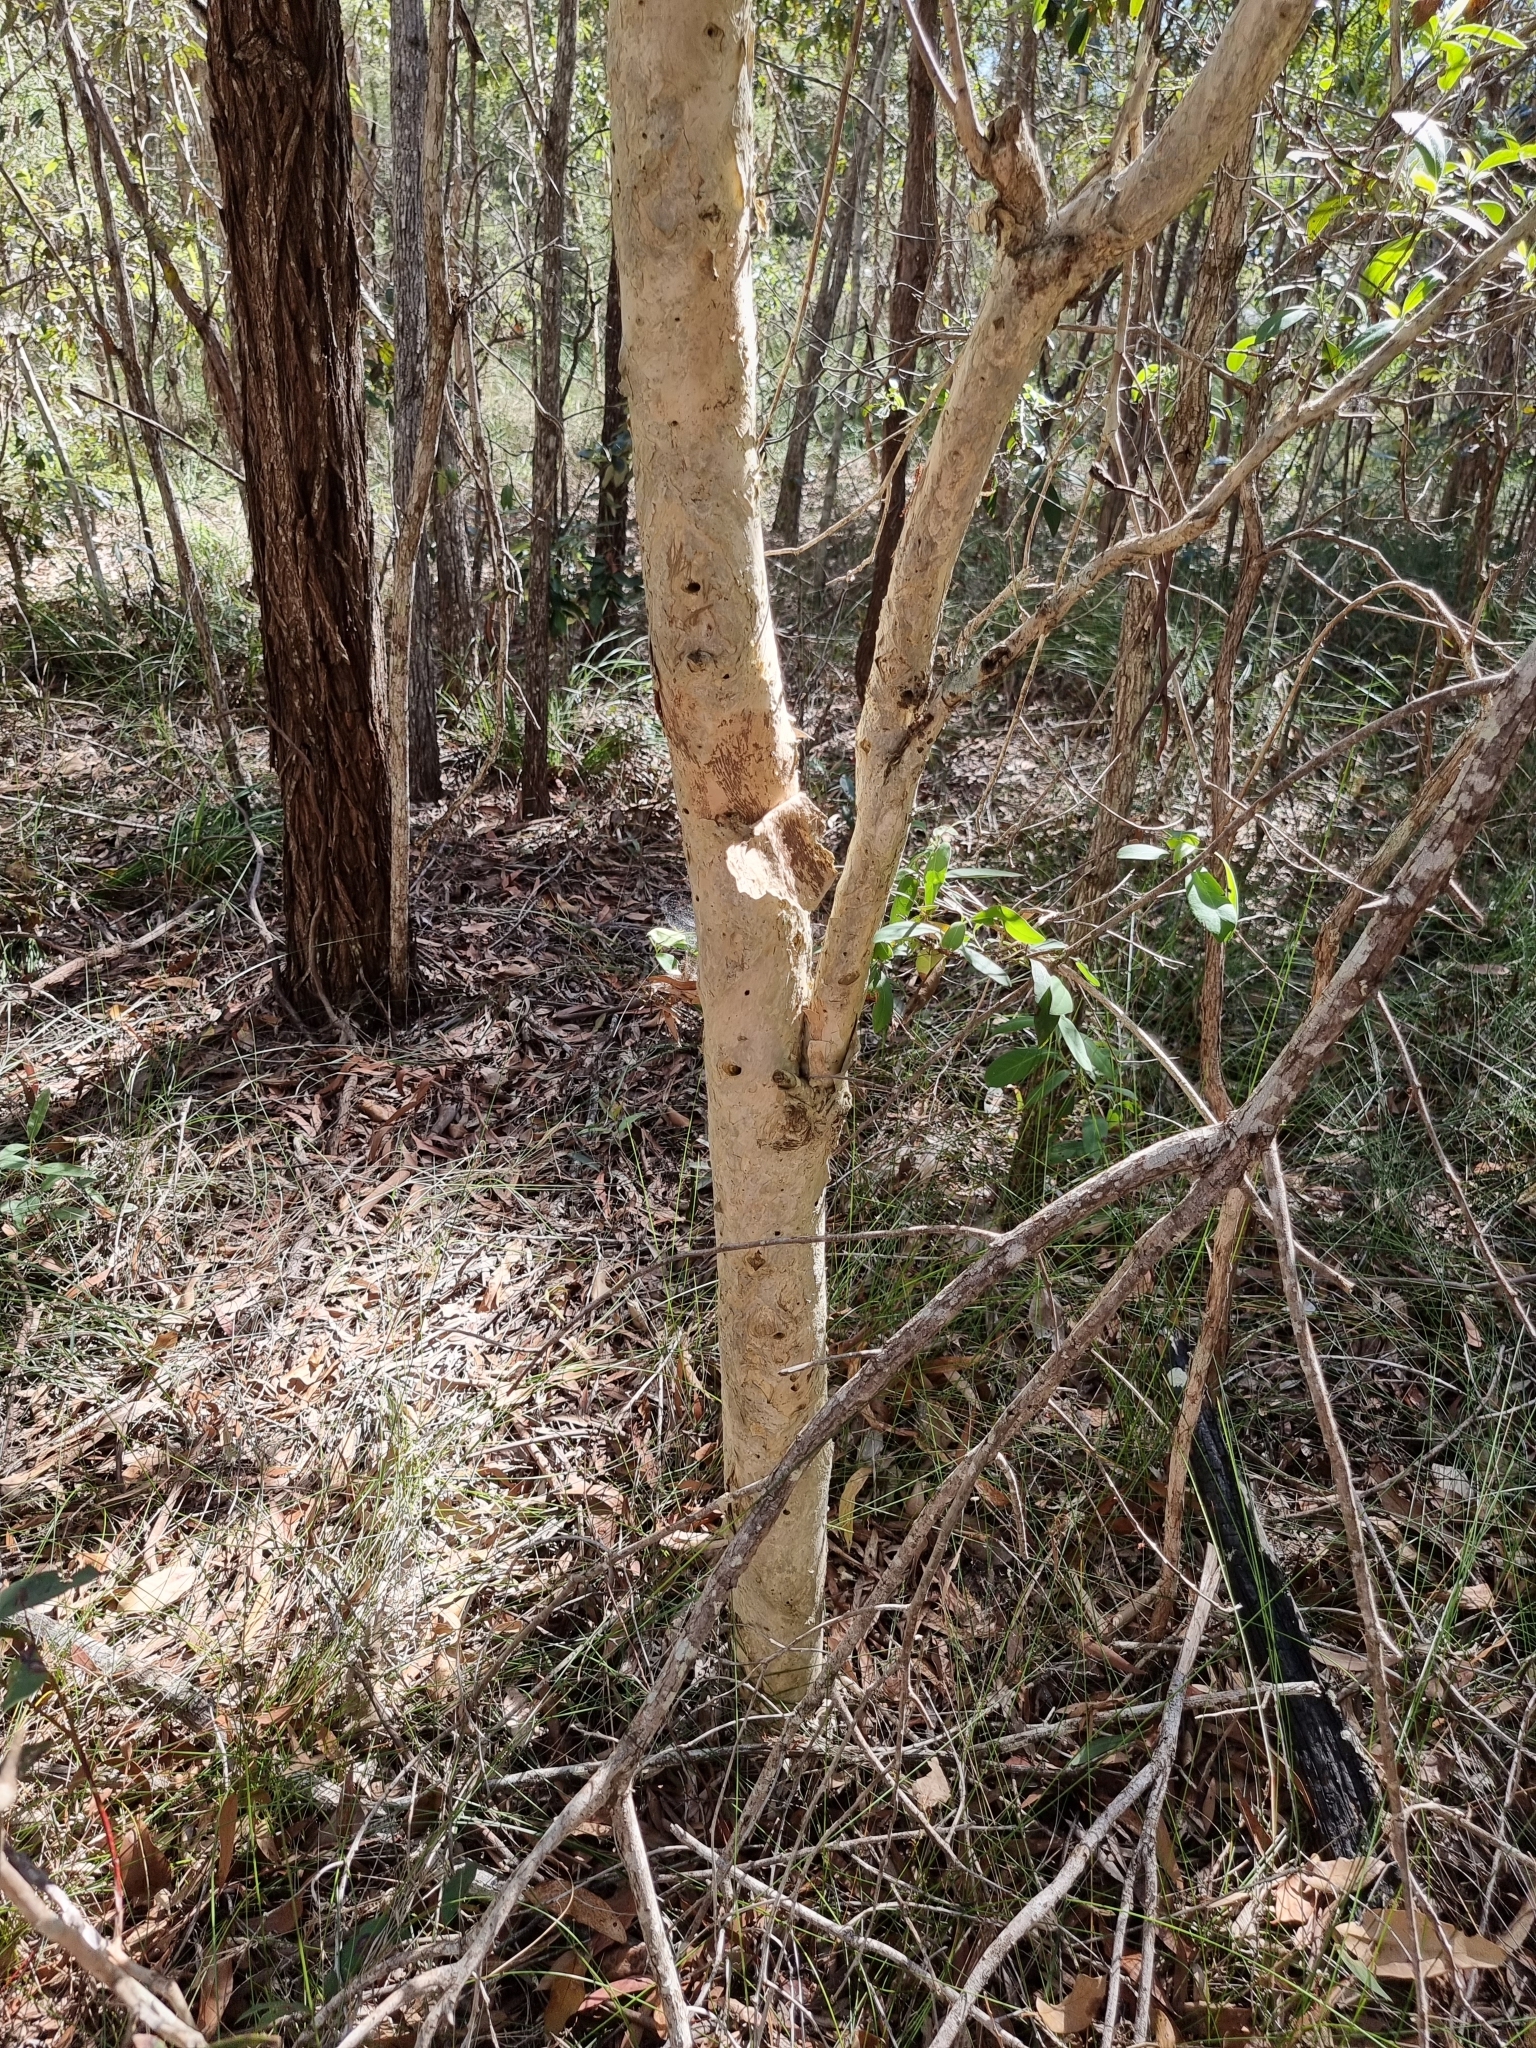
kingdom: Plantae
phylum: Tracheophyta
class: Magnoliopsida
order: Myrtales
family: Myrtaceae
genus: Melaleuca
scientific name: Melaleuca quinquenervia
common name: Punktree
